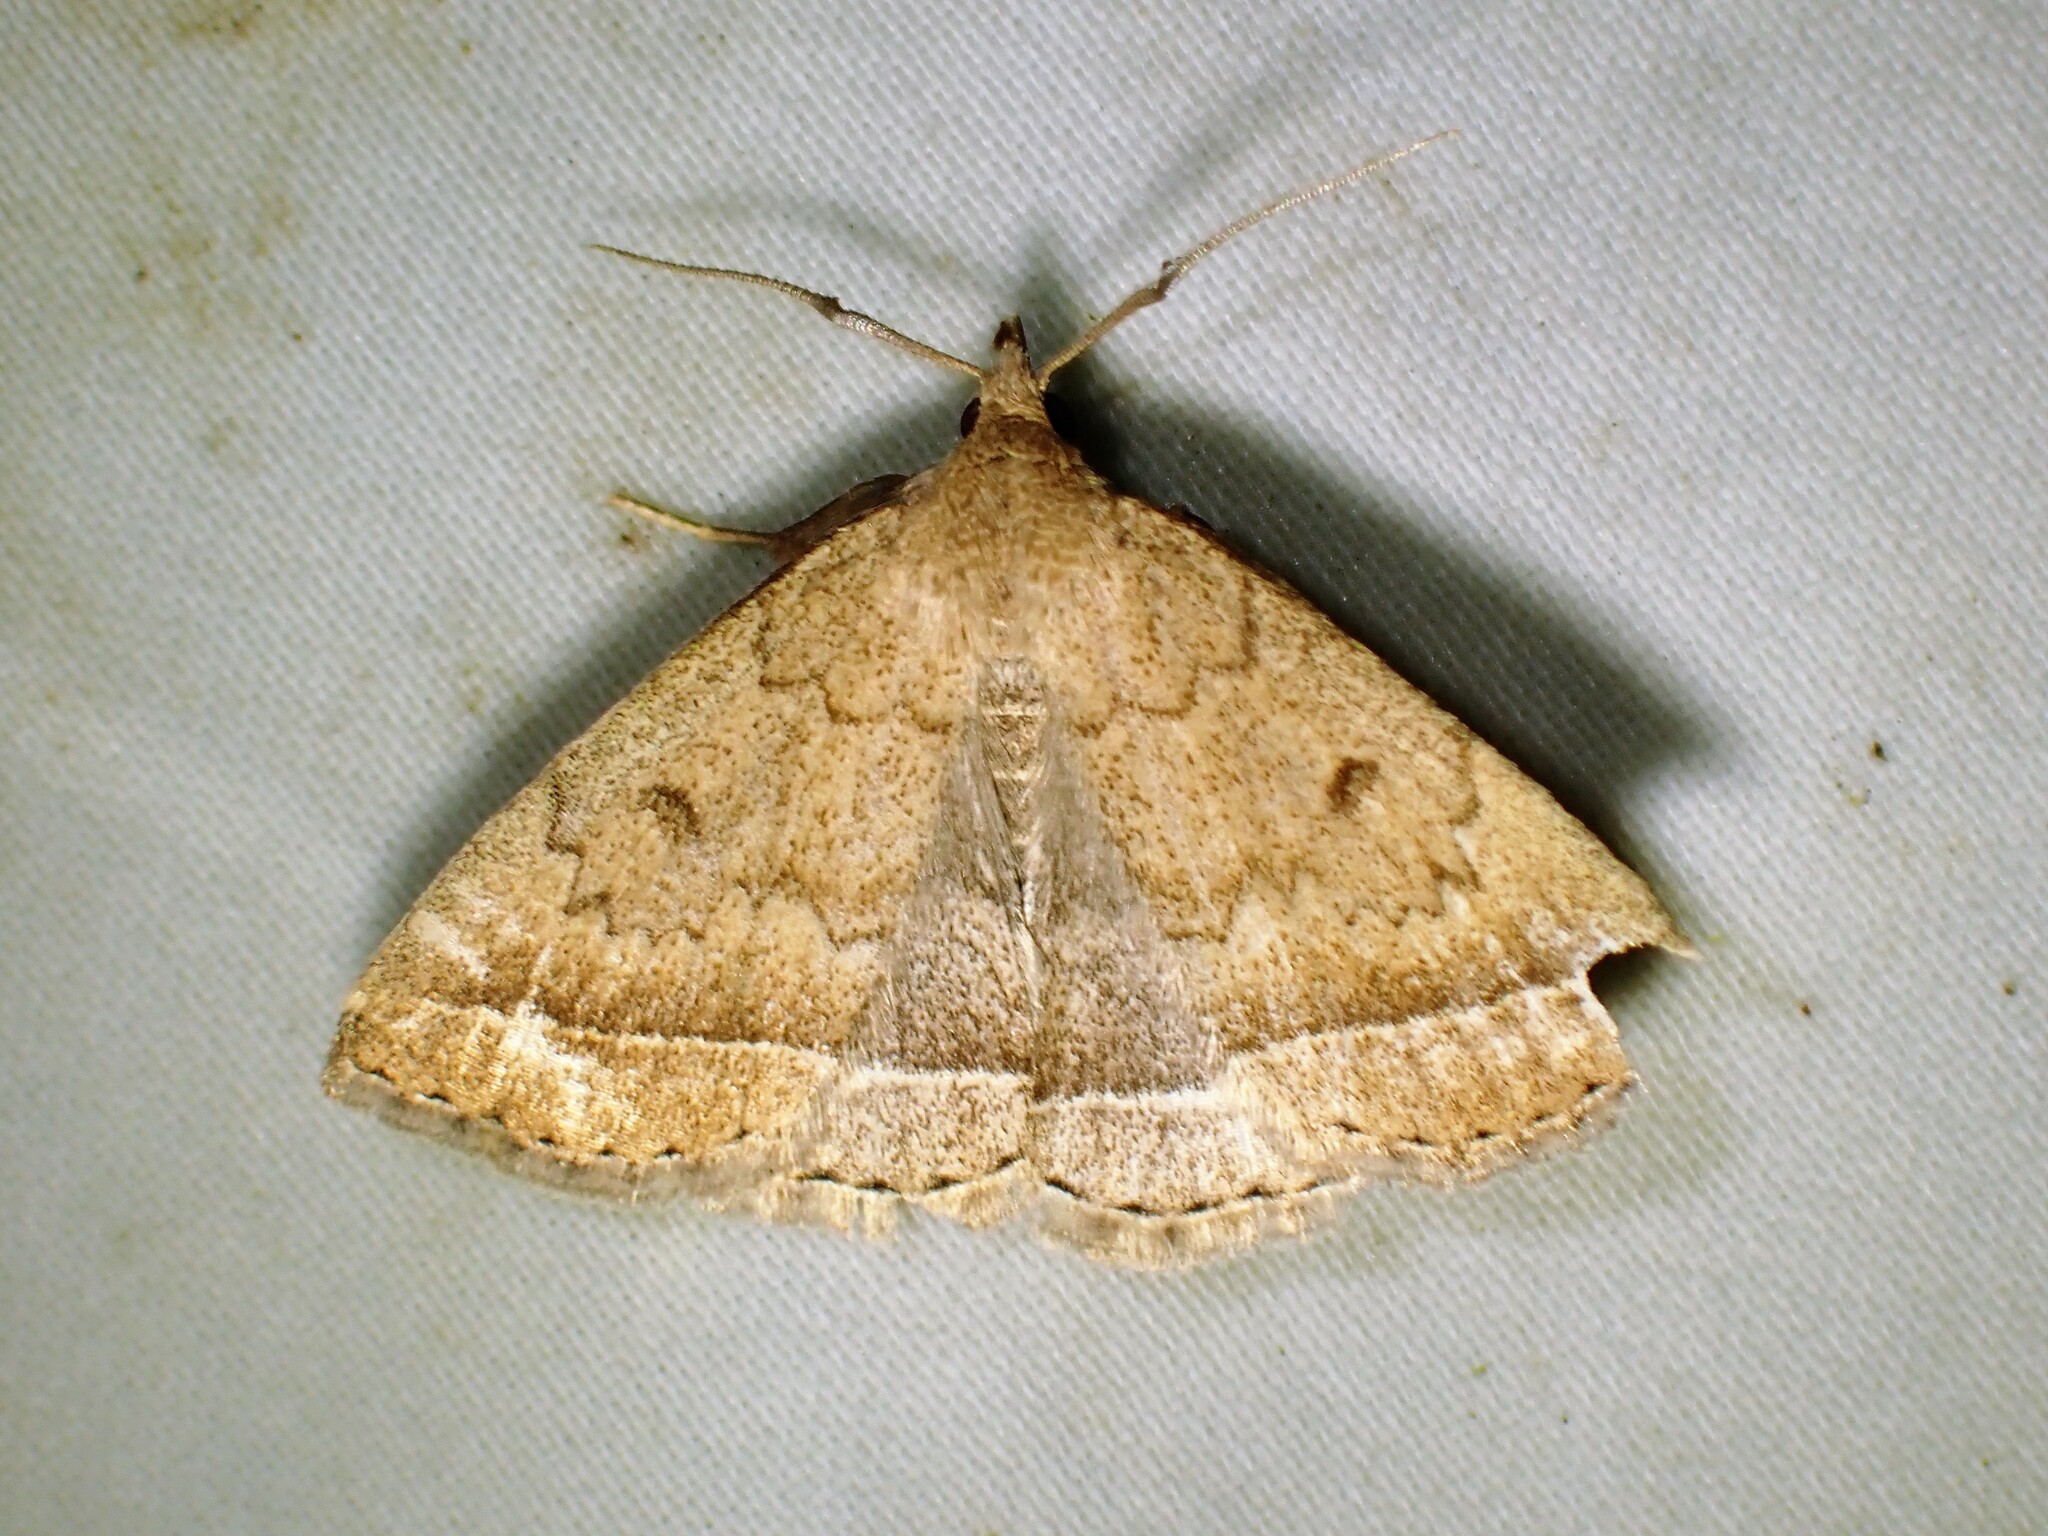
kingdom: Animalia
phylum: Arthropoda
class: Insecta
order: Lepidoptera
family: Erebidae
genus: Zanclognatha
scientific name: Zanclognatha jacchusalis
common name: Yellowish zanclognatha
